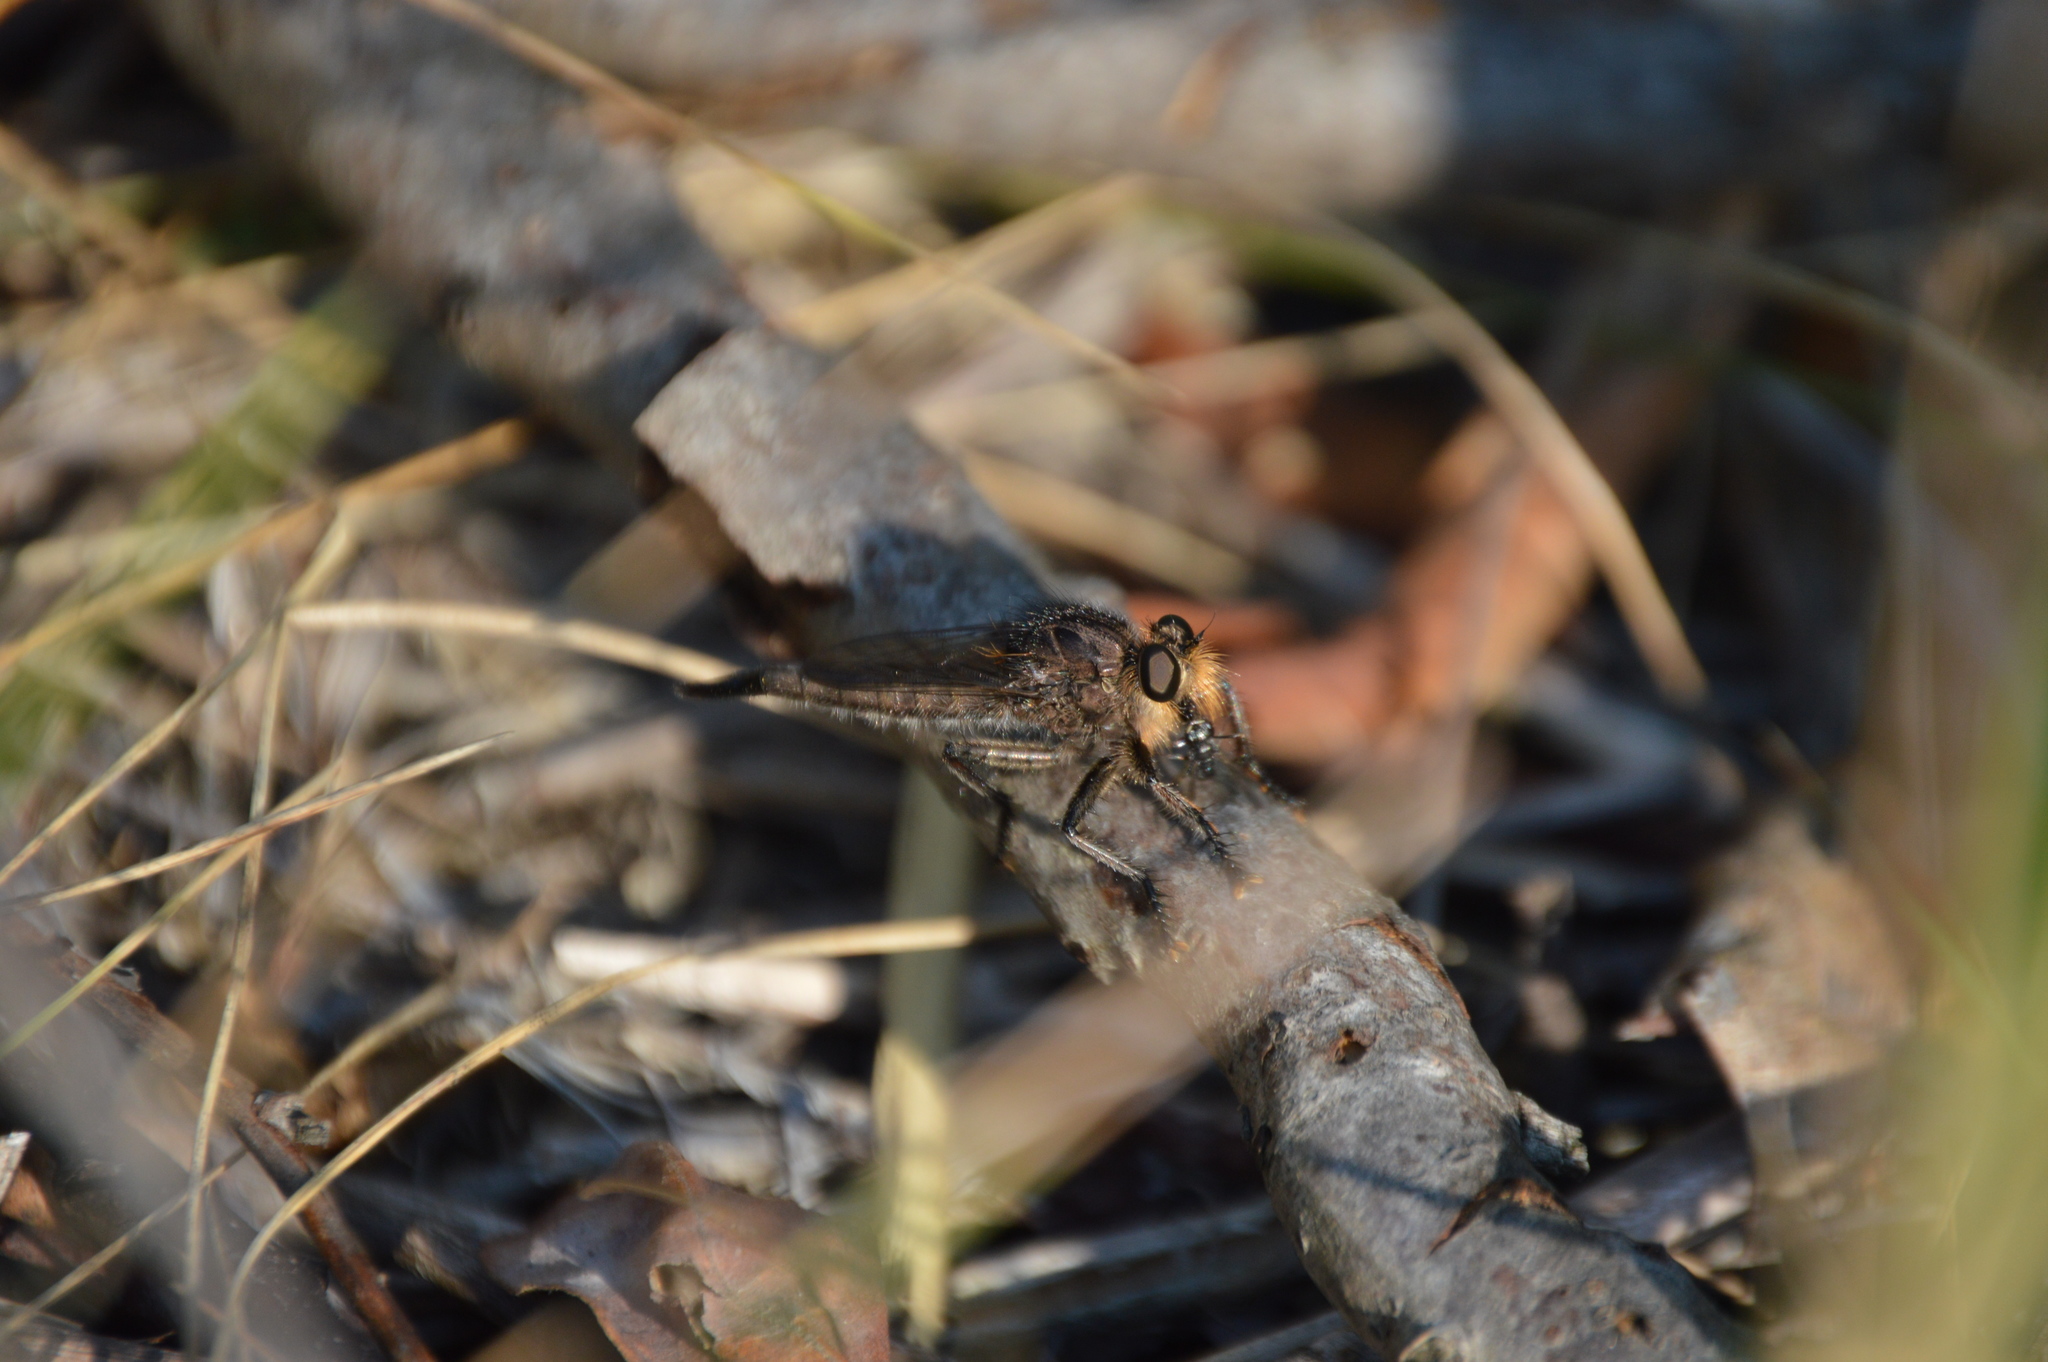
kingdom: Animalia
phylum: Arthropoda
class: Insecta
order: Diptera
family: Asilidae
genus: Efferia
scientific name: Efferia pogonias
